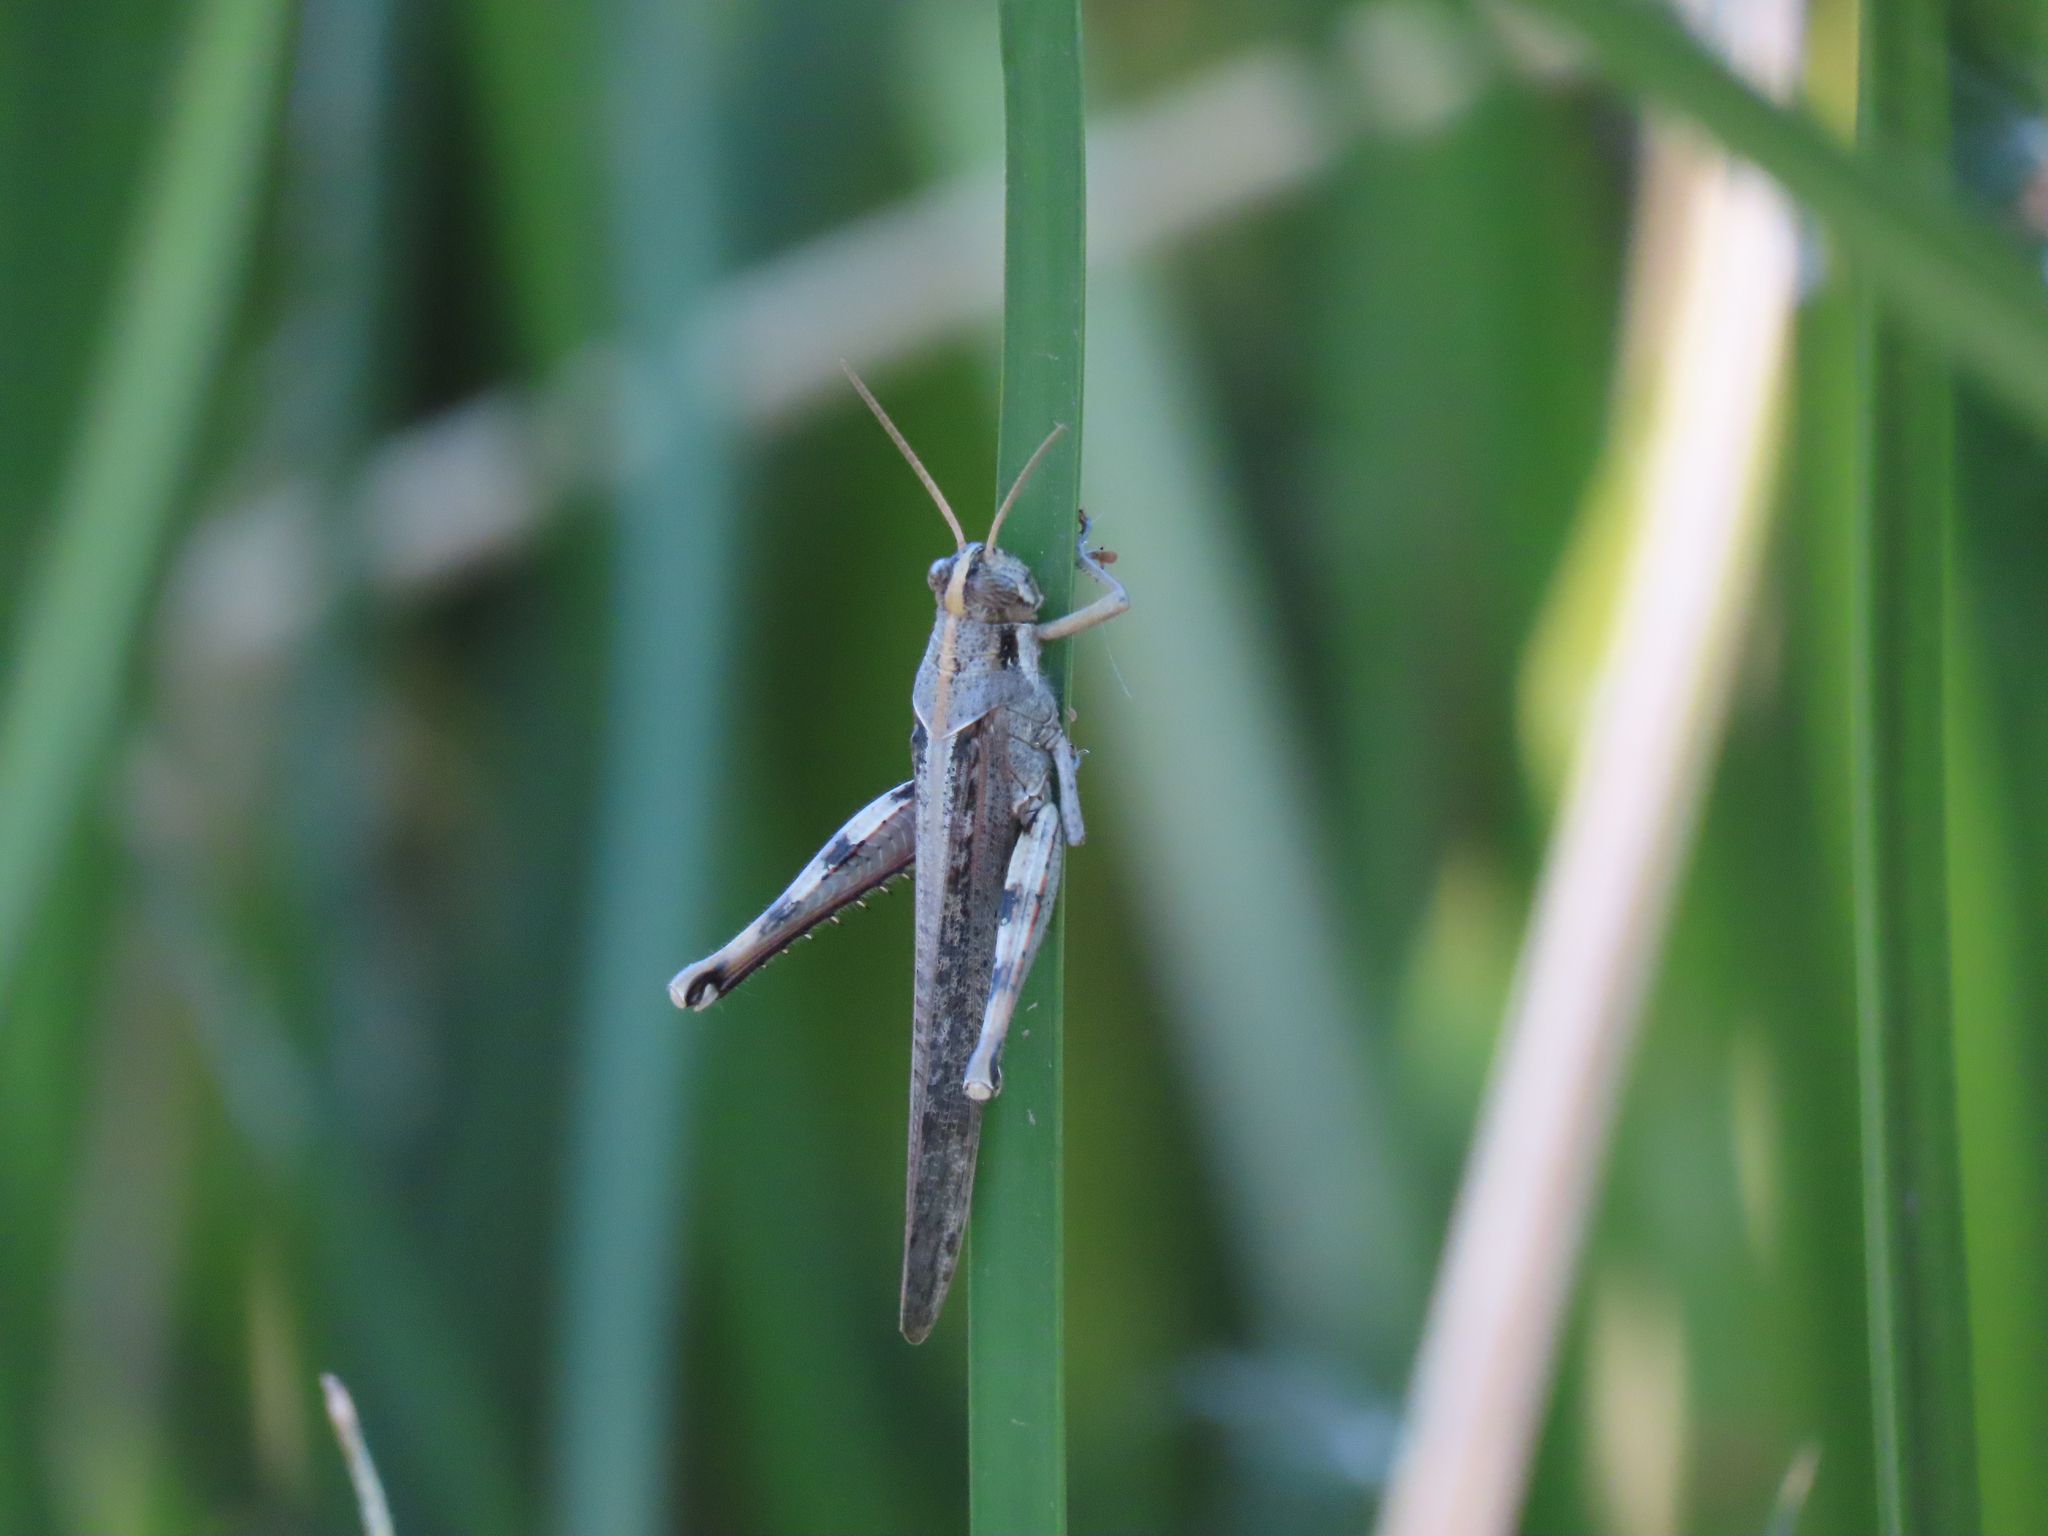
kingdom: Animalia
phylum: Arthropoda
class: Insecta
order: Orthoptera
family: Acrididae
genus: Schistocerca
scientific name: Schistocerca nitens
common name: Vagrant grasshopper
